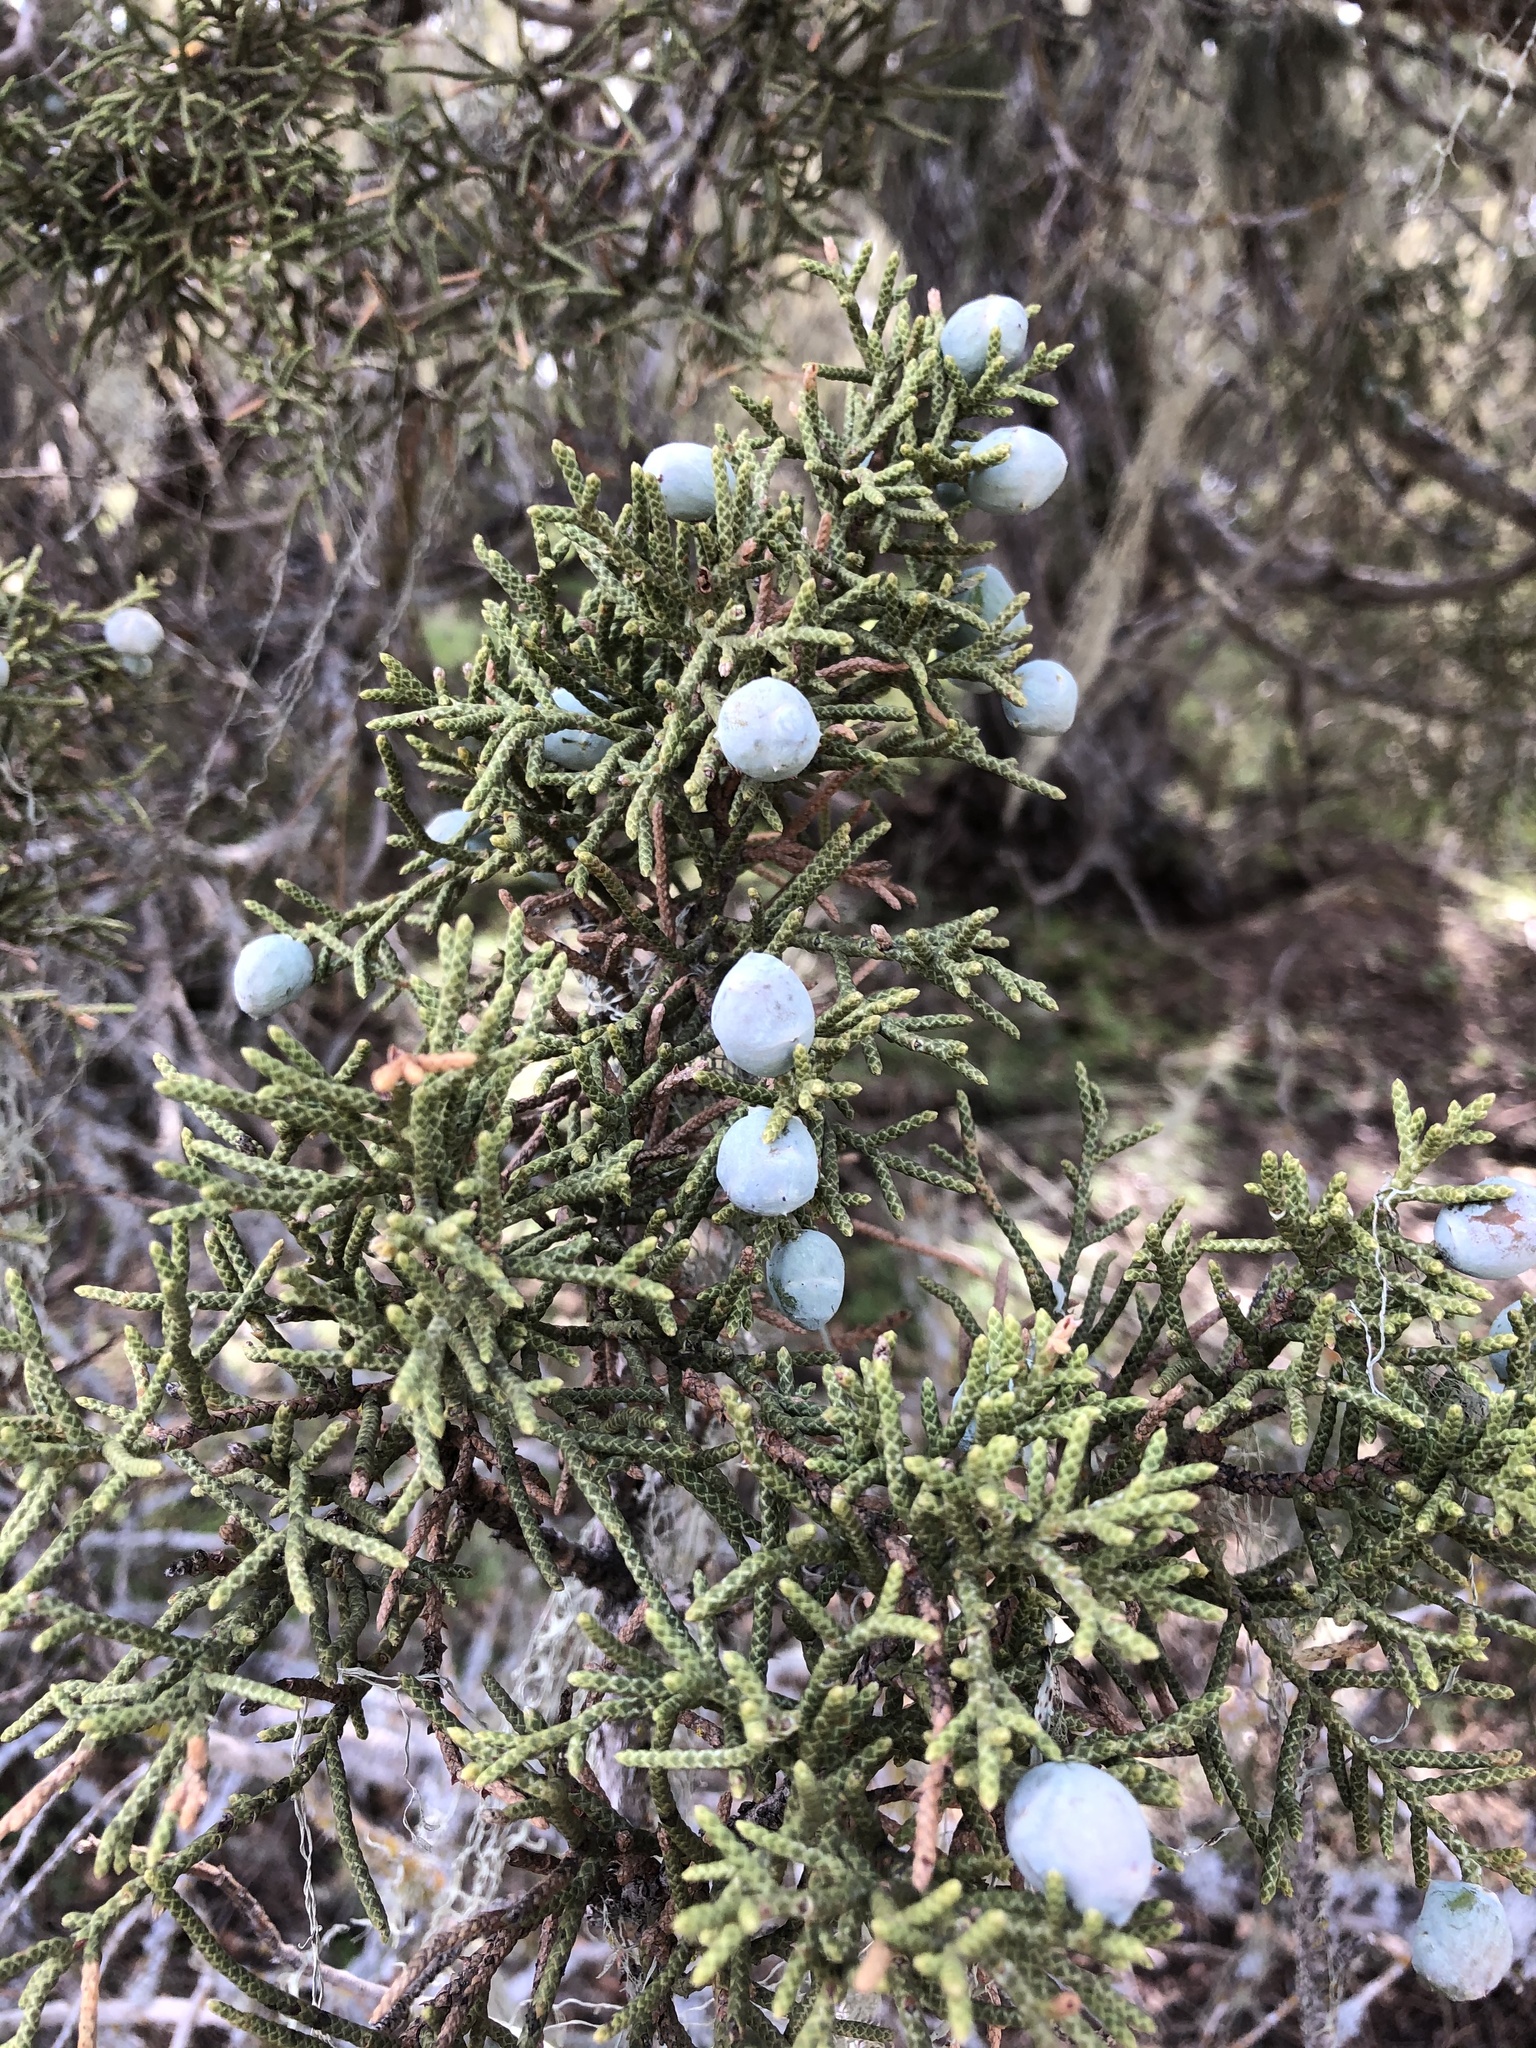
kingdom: Plantae
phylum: Tracheophyta
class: Pinopsida
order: Pinales
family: Cupressaceae
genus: Juniperus
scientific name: Juniperus californica
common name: California juniper
